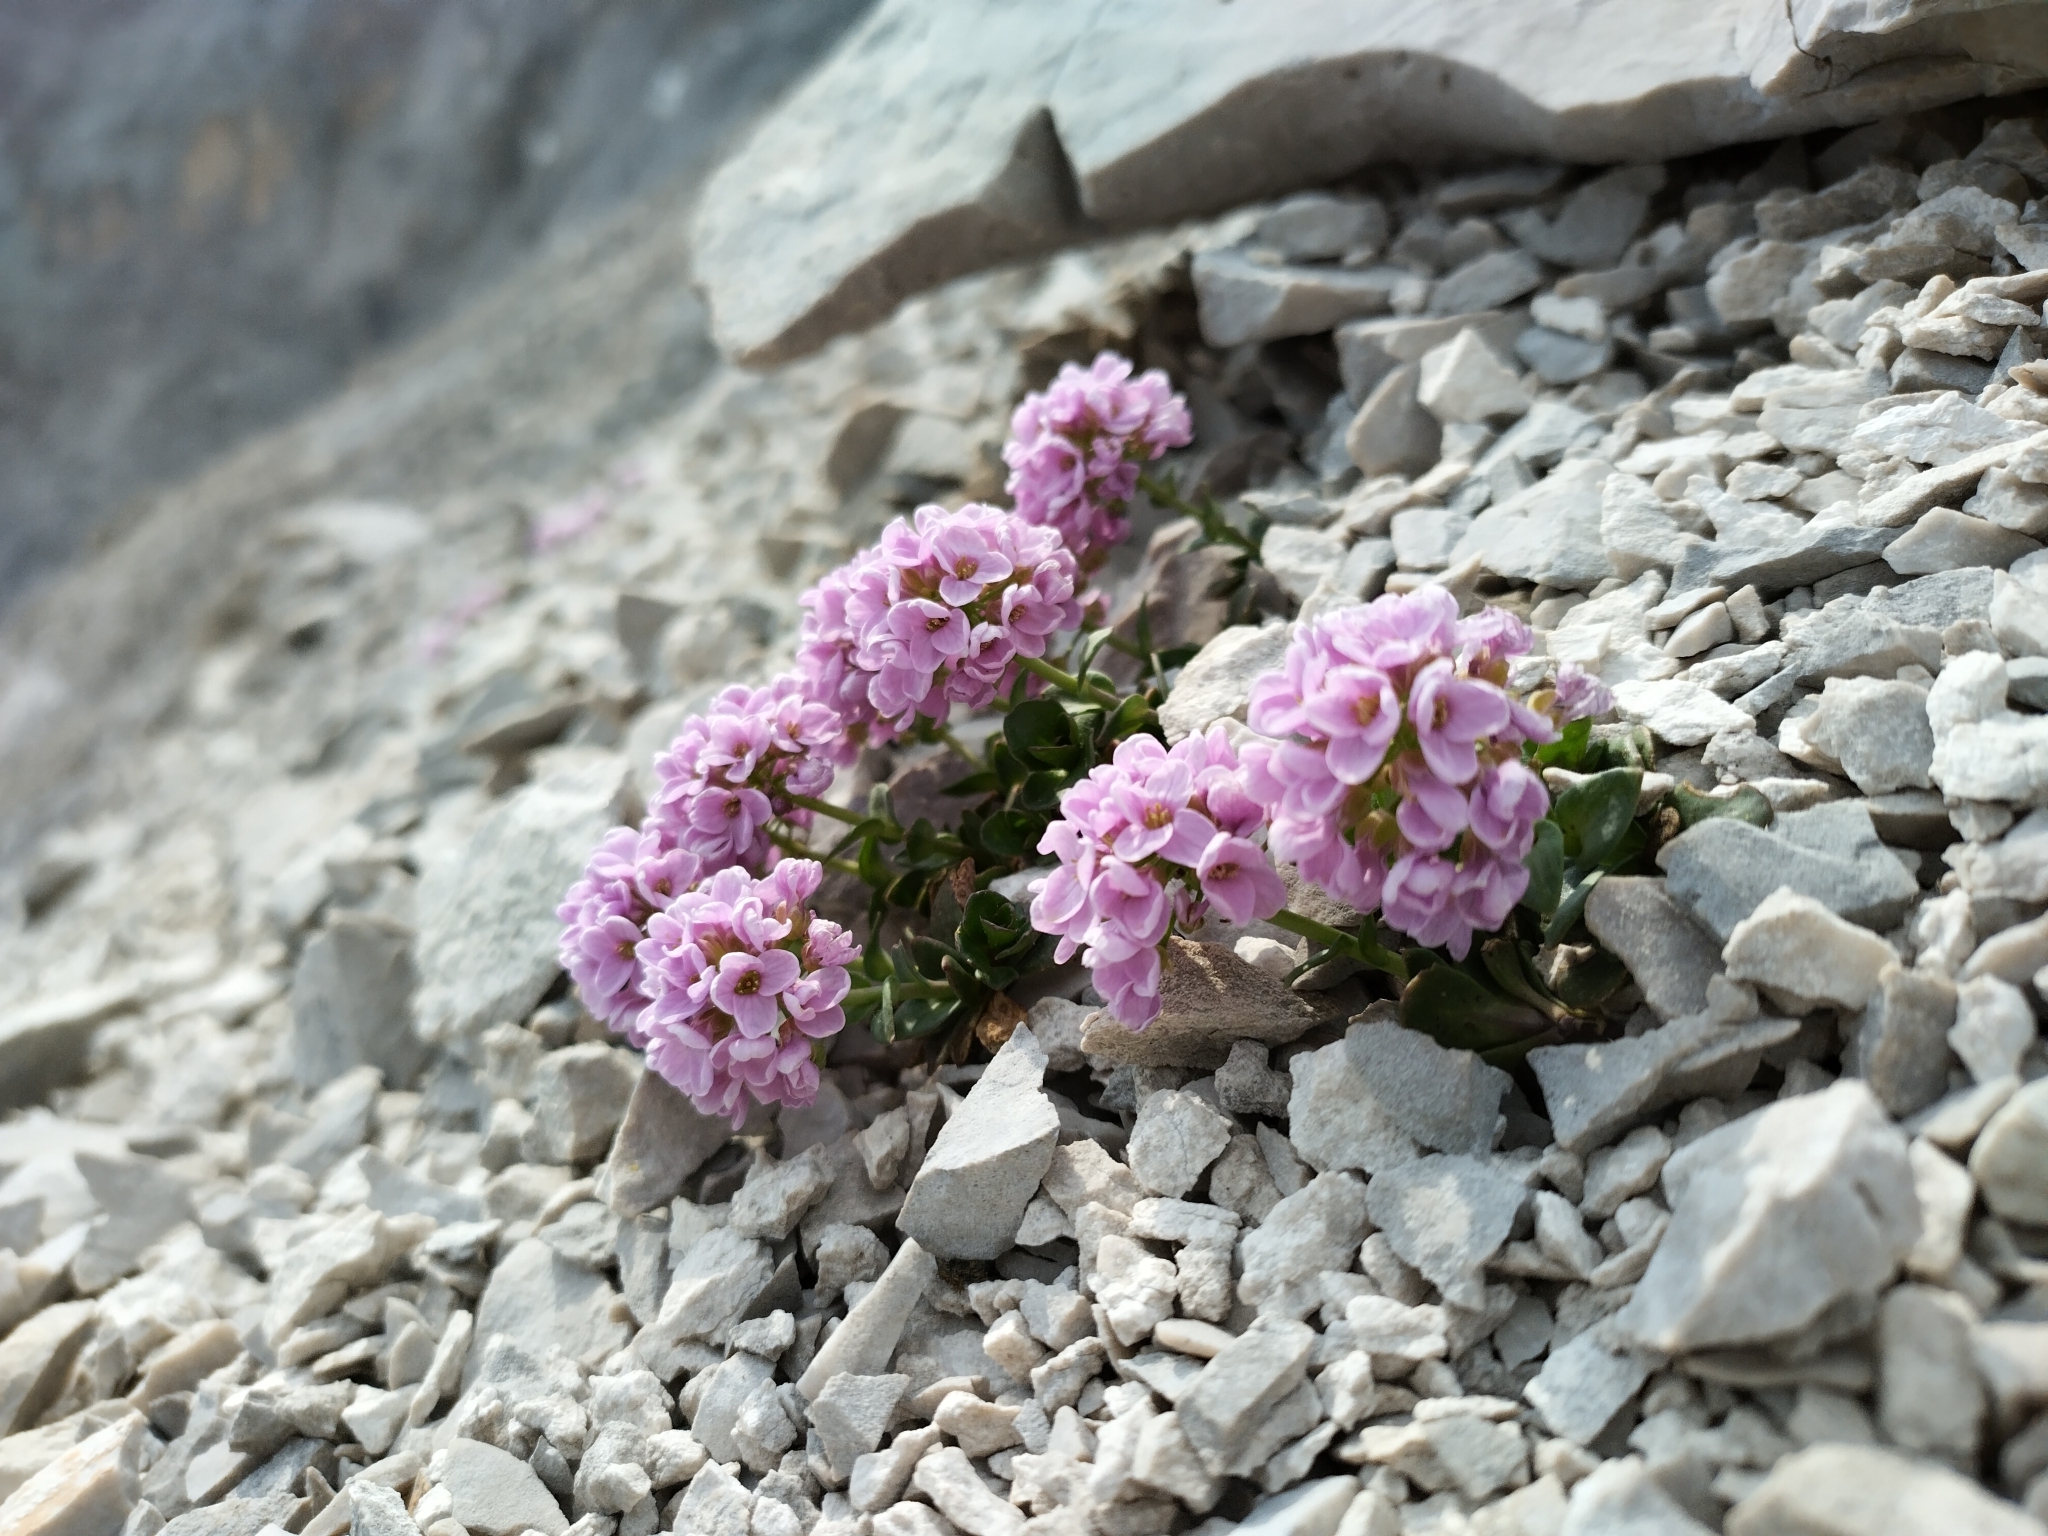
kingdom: Plantae
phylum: Tracheophyta
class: Magnoliopsida
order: Brassicales
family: Brassicaceae
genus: Noccaea
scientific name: Noccaea rotundifolia
